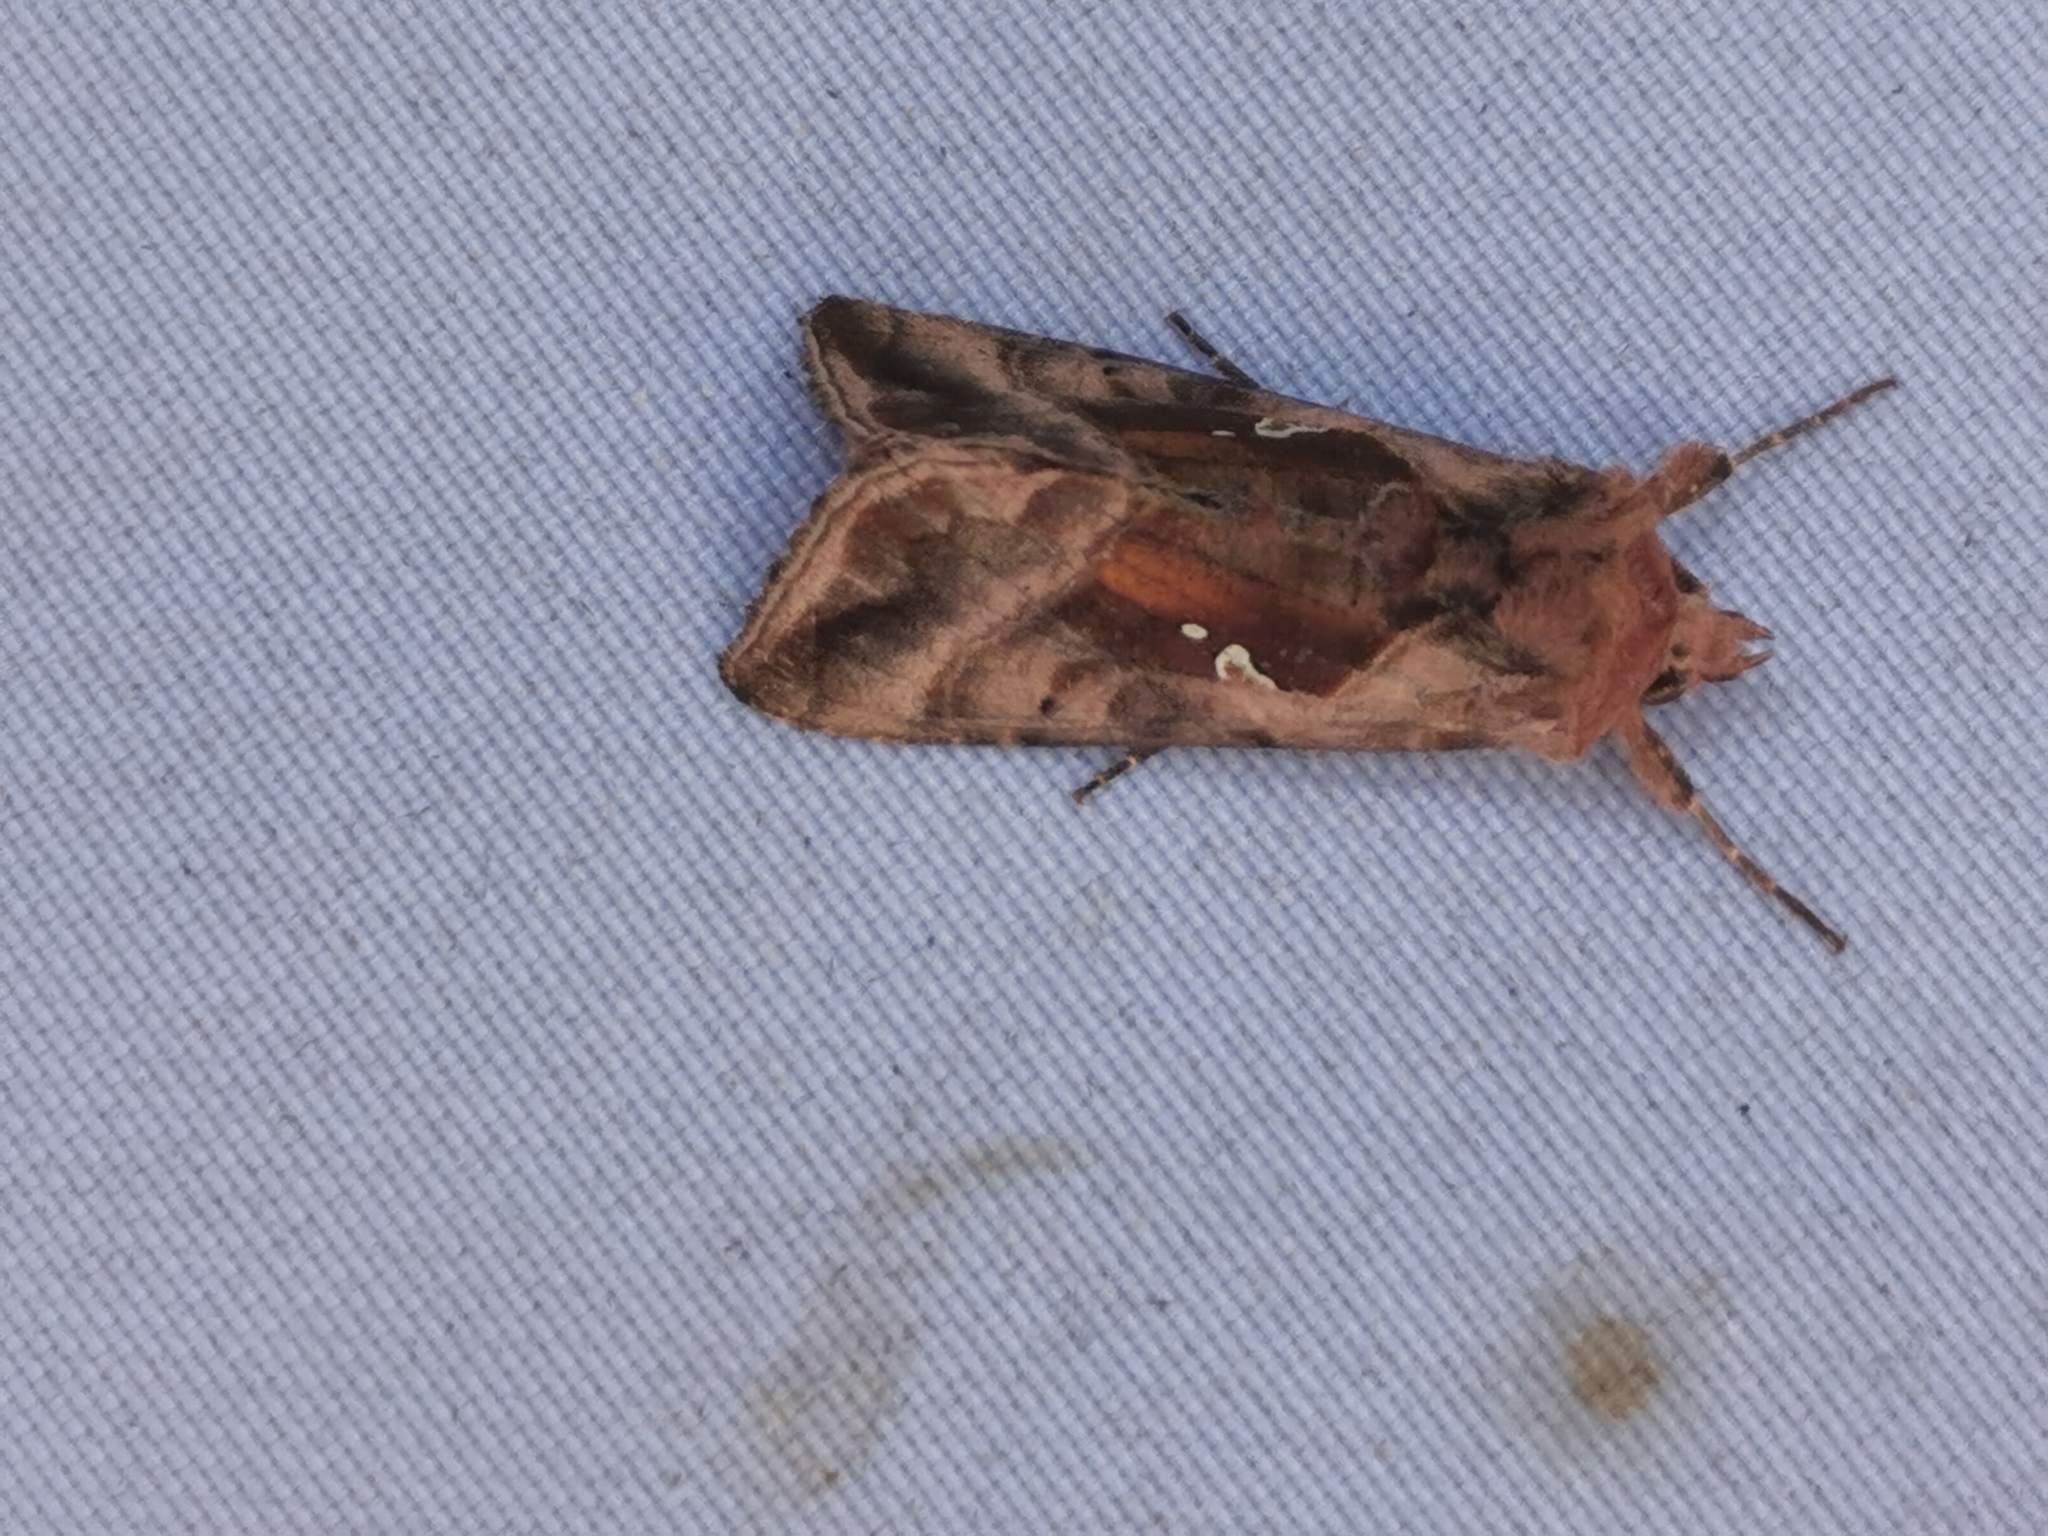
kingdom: Animalia
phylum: Arthropoda
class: Insecta
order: Lepidoptera
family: Noctuidae
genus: Autographa
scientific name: Autographa jota
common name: Plain golden y
